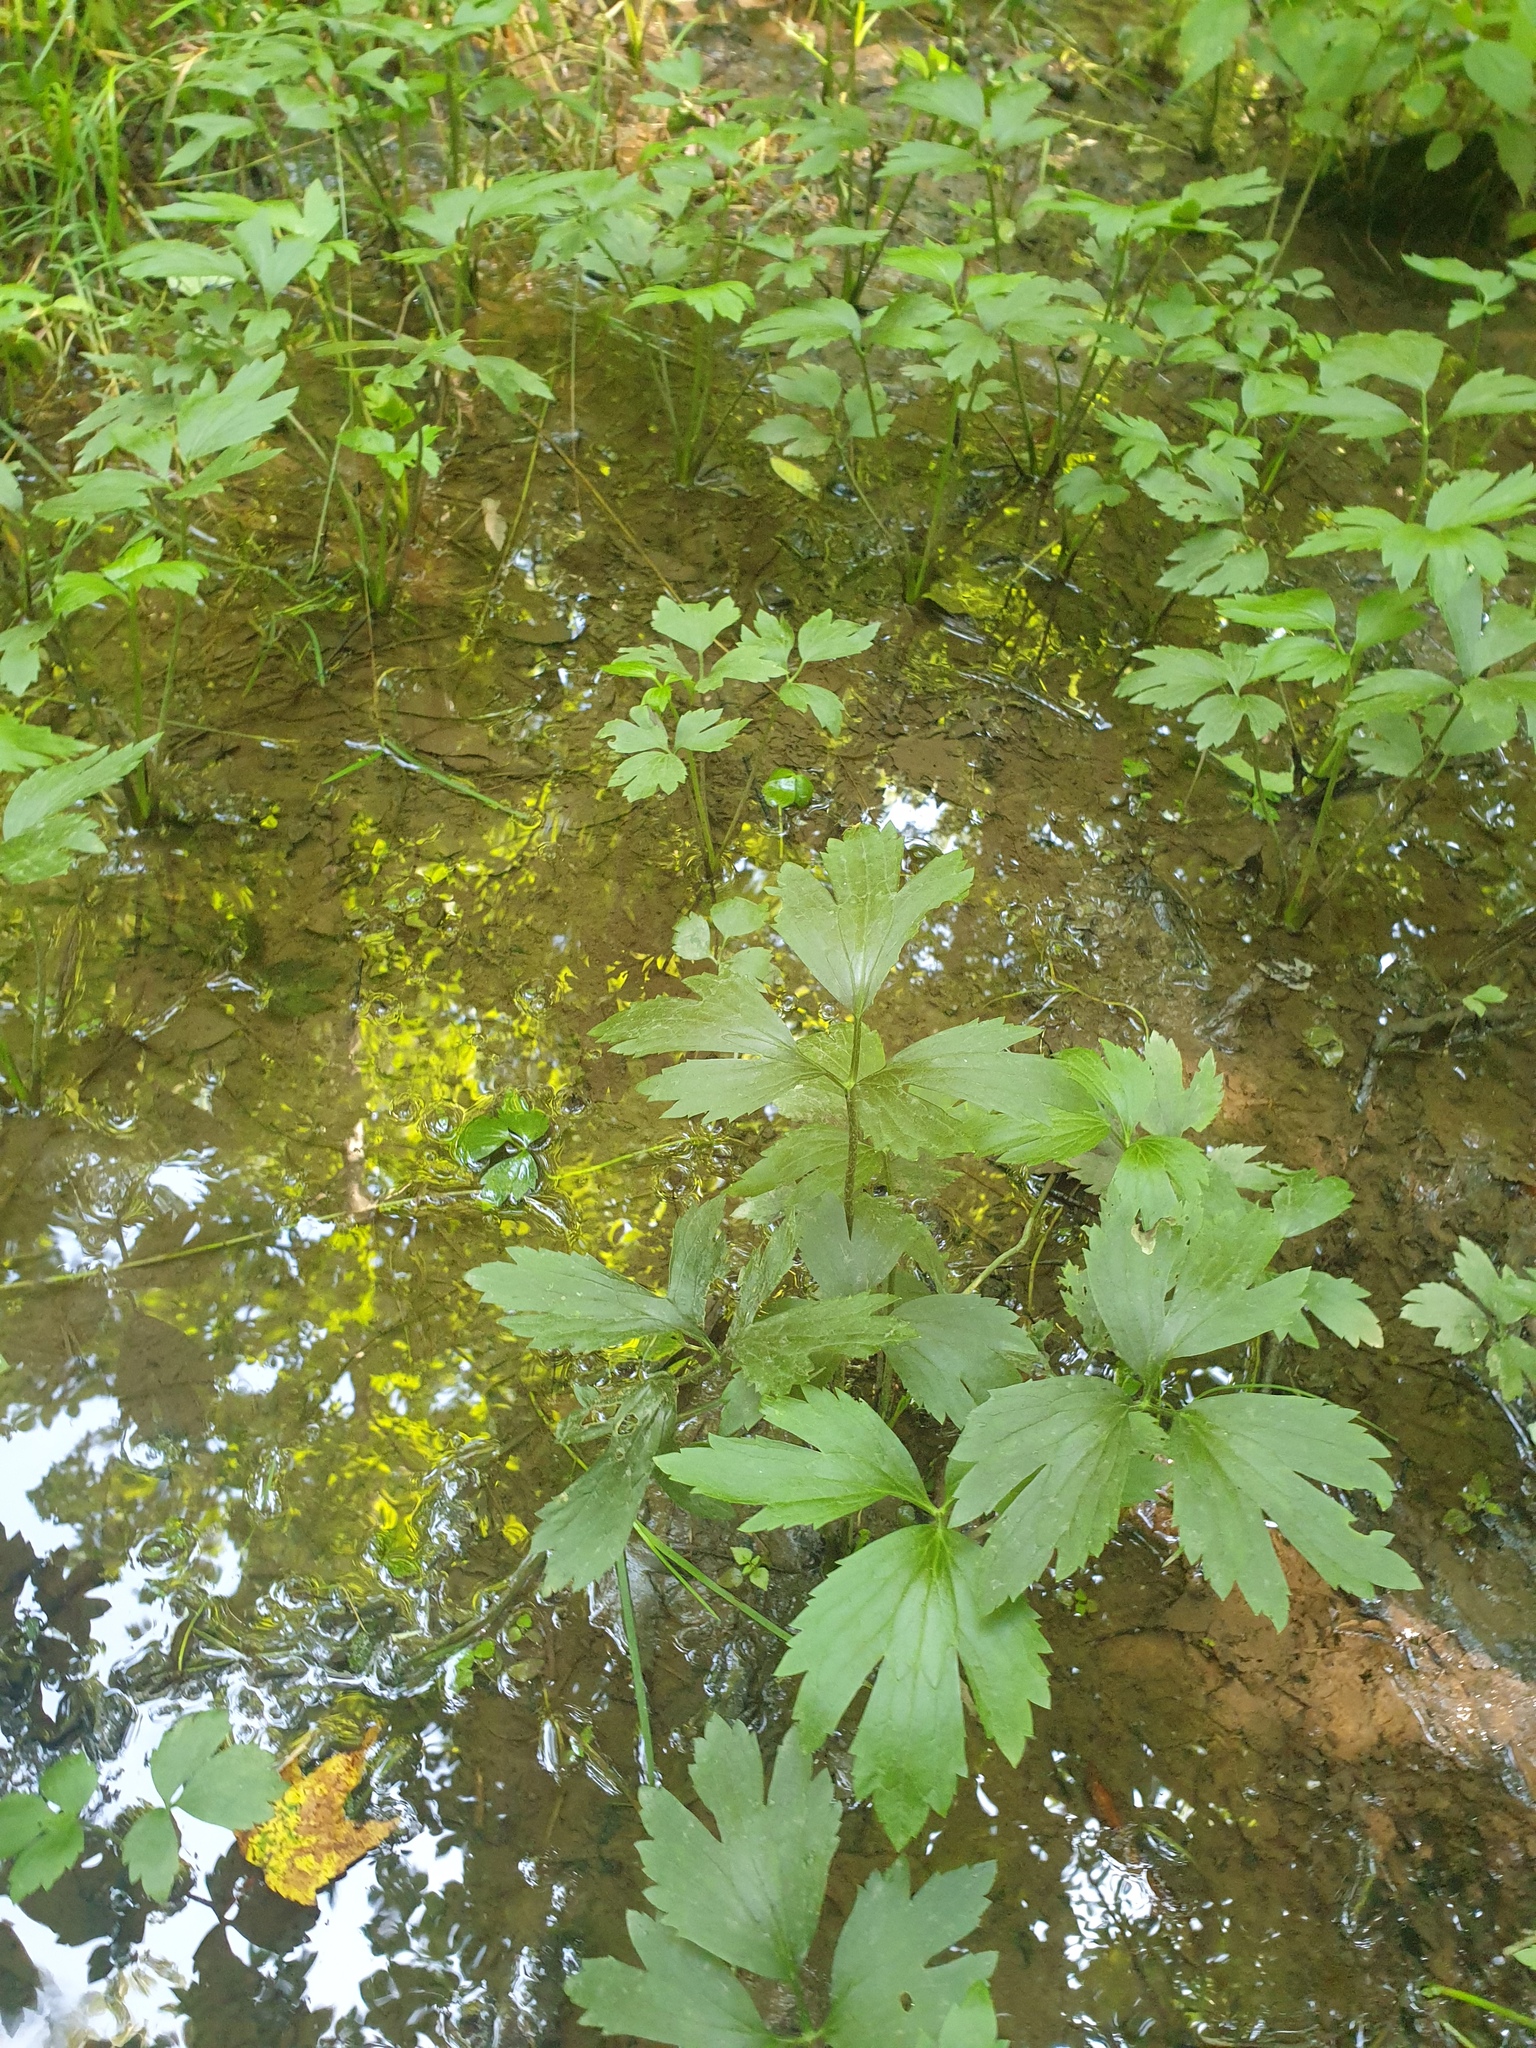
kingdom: Plantae
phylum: Tracheophyta
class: Magnoliopsida
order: Ranunculales
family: Ranunculaceae
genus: Ranunculus
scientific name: Ranunculus hispidus
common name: Bristly buttercup
